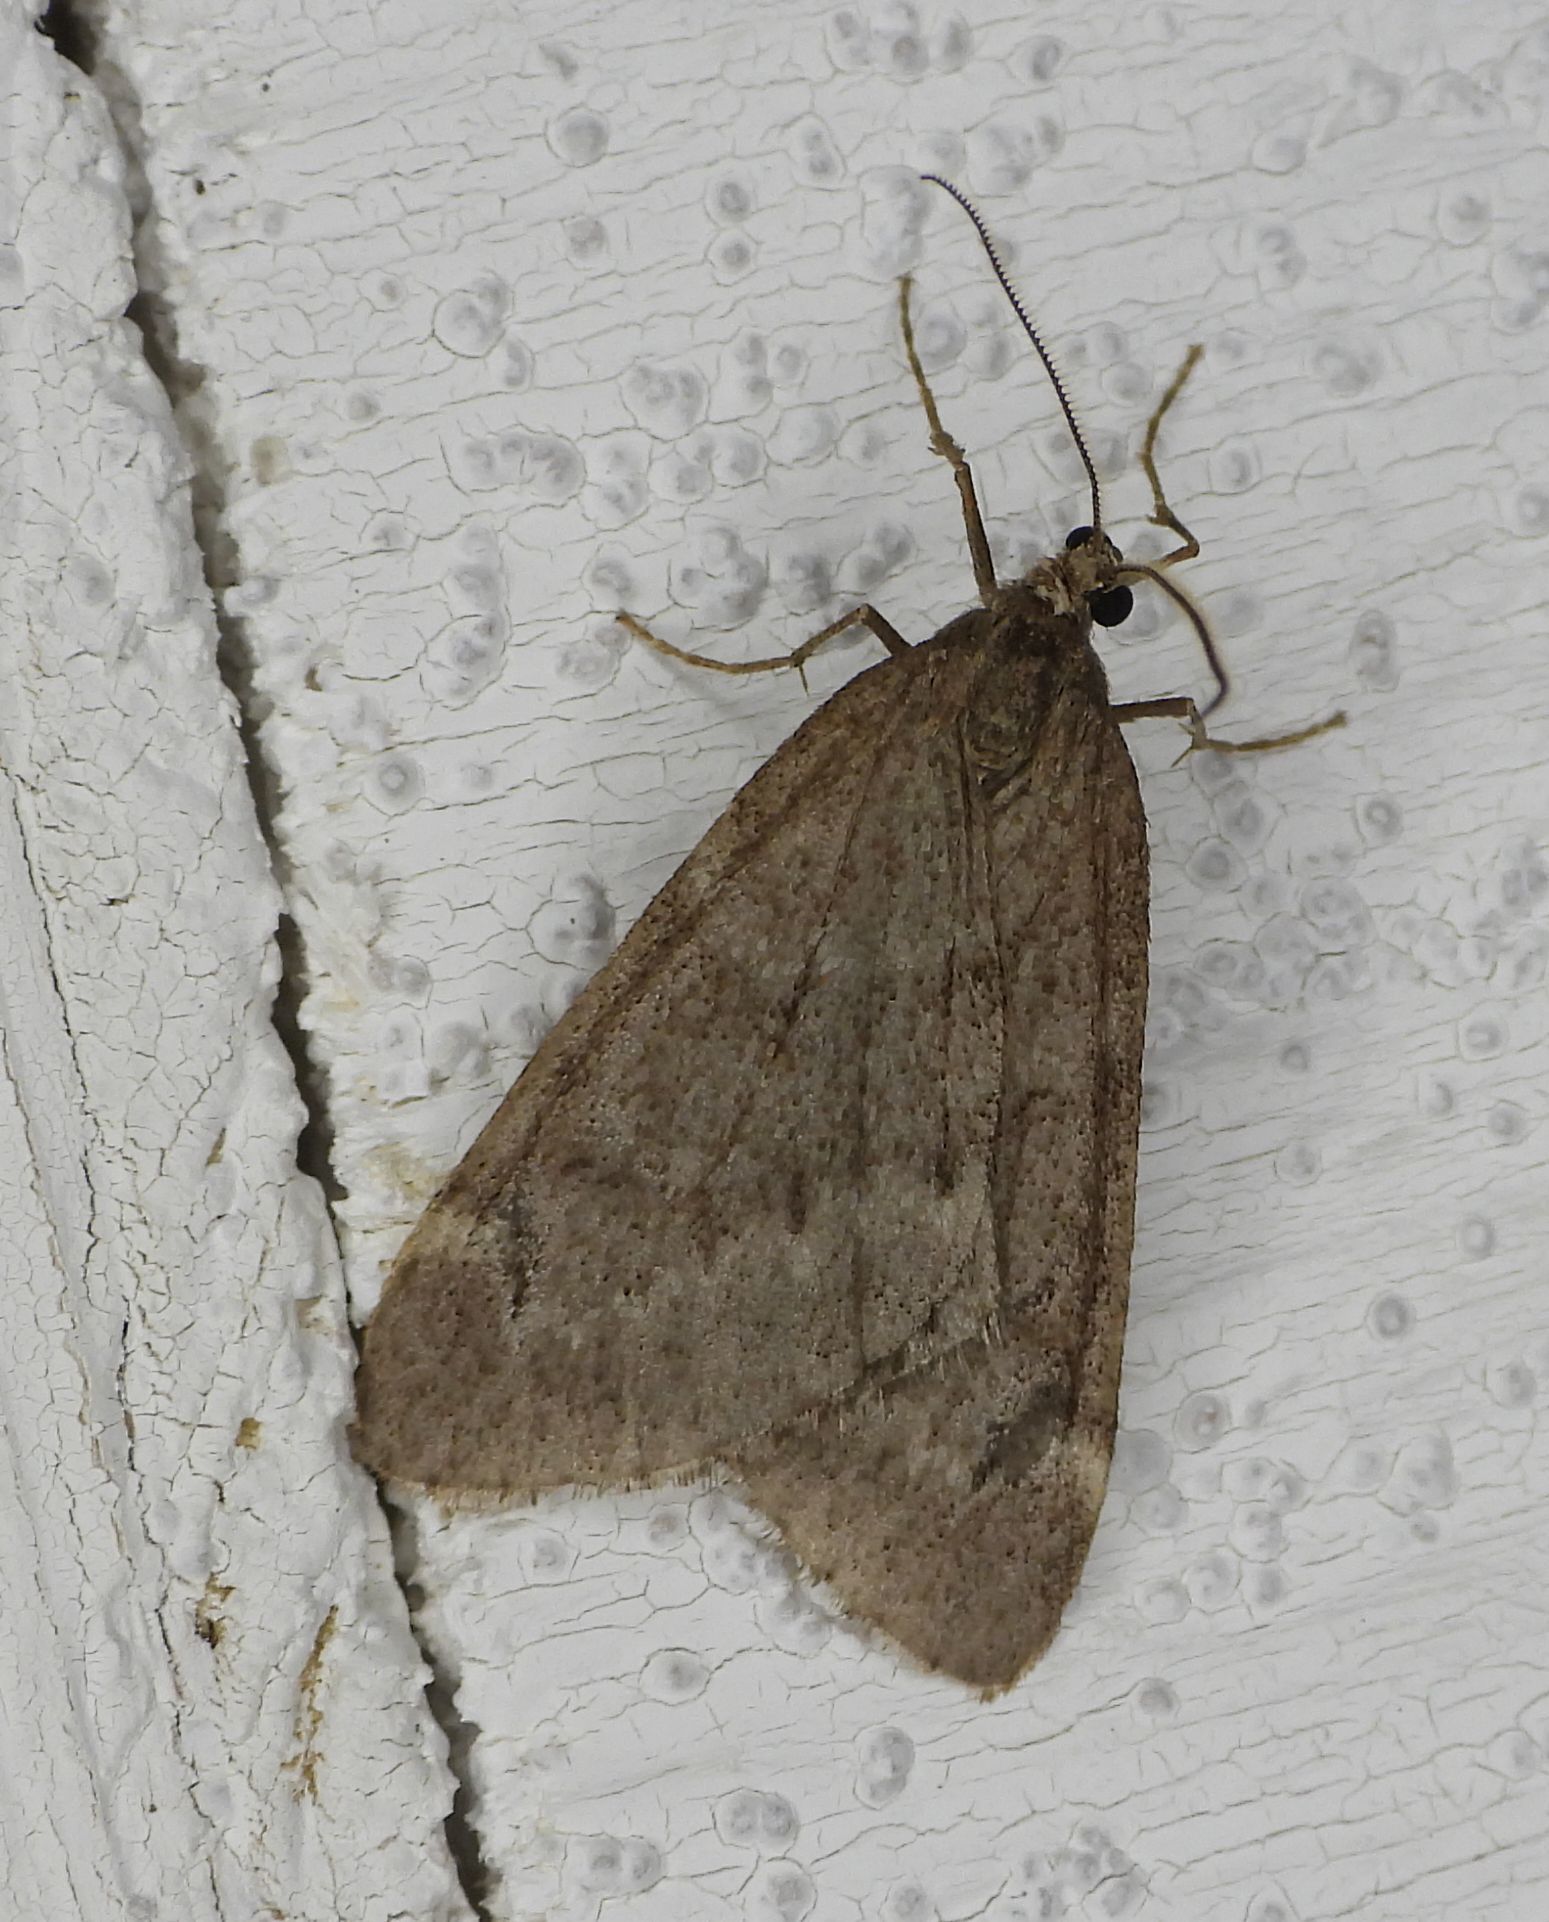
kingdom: Animalia
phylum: Arthropoda
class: Insecta
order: Lepidoptera
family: Geometridae
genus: Alsophila
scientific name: Alsophila pometaria
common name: Fall cankerworm
